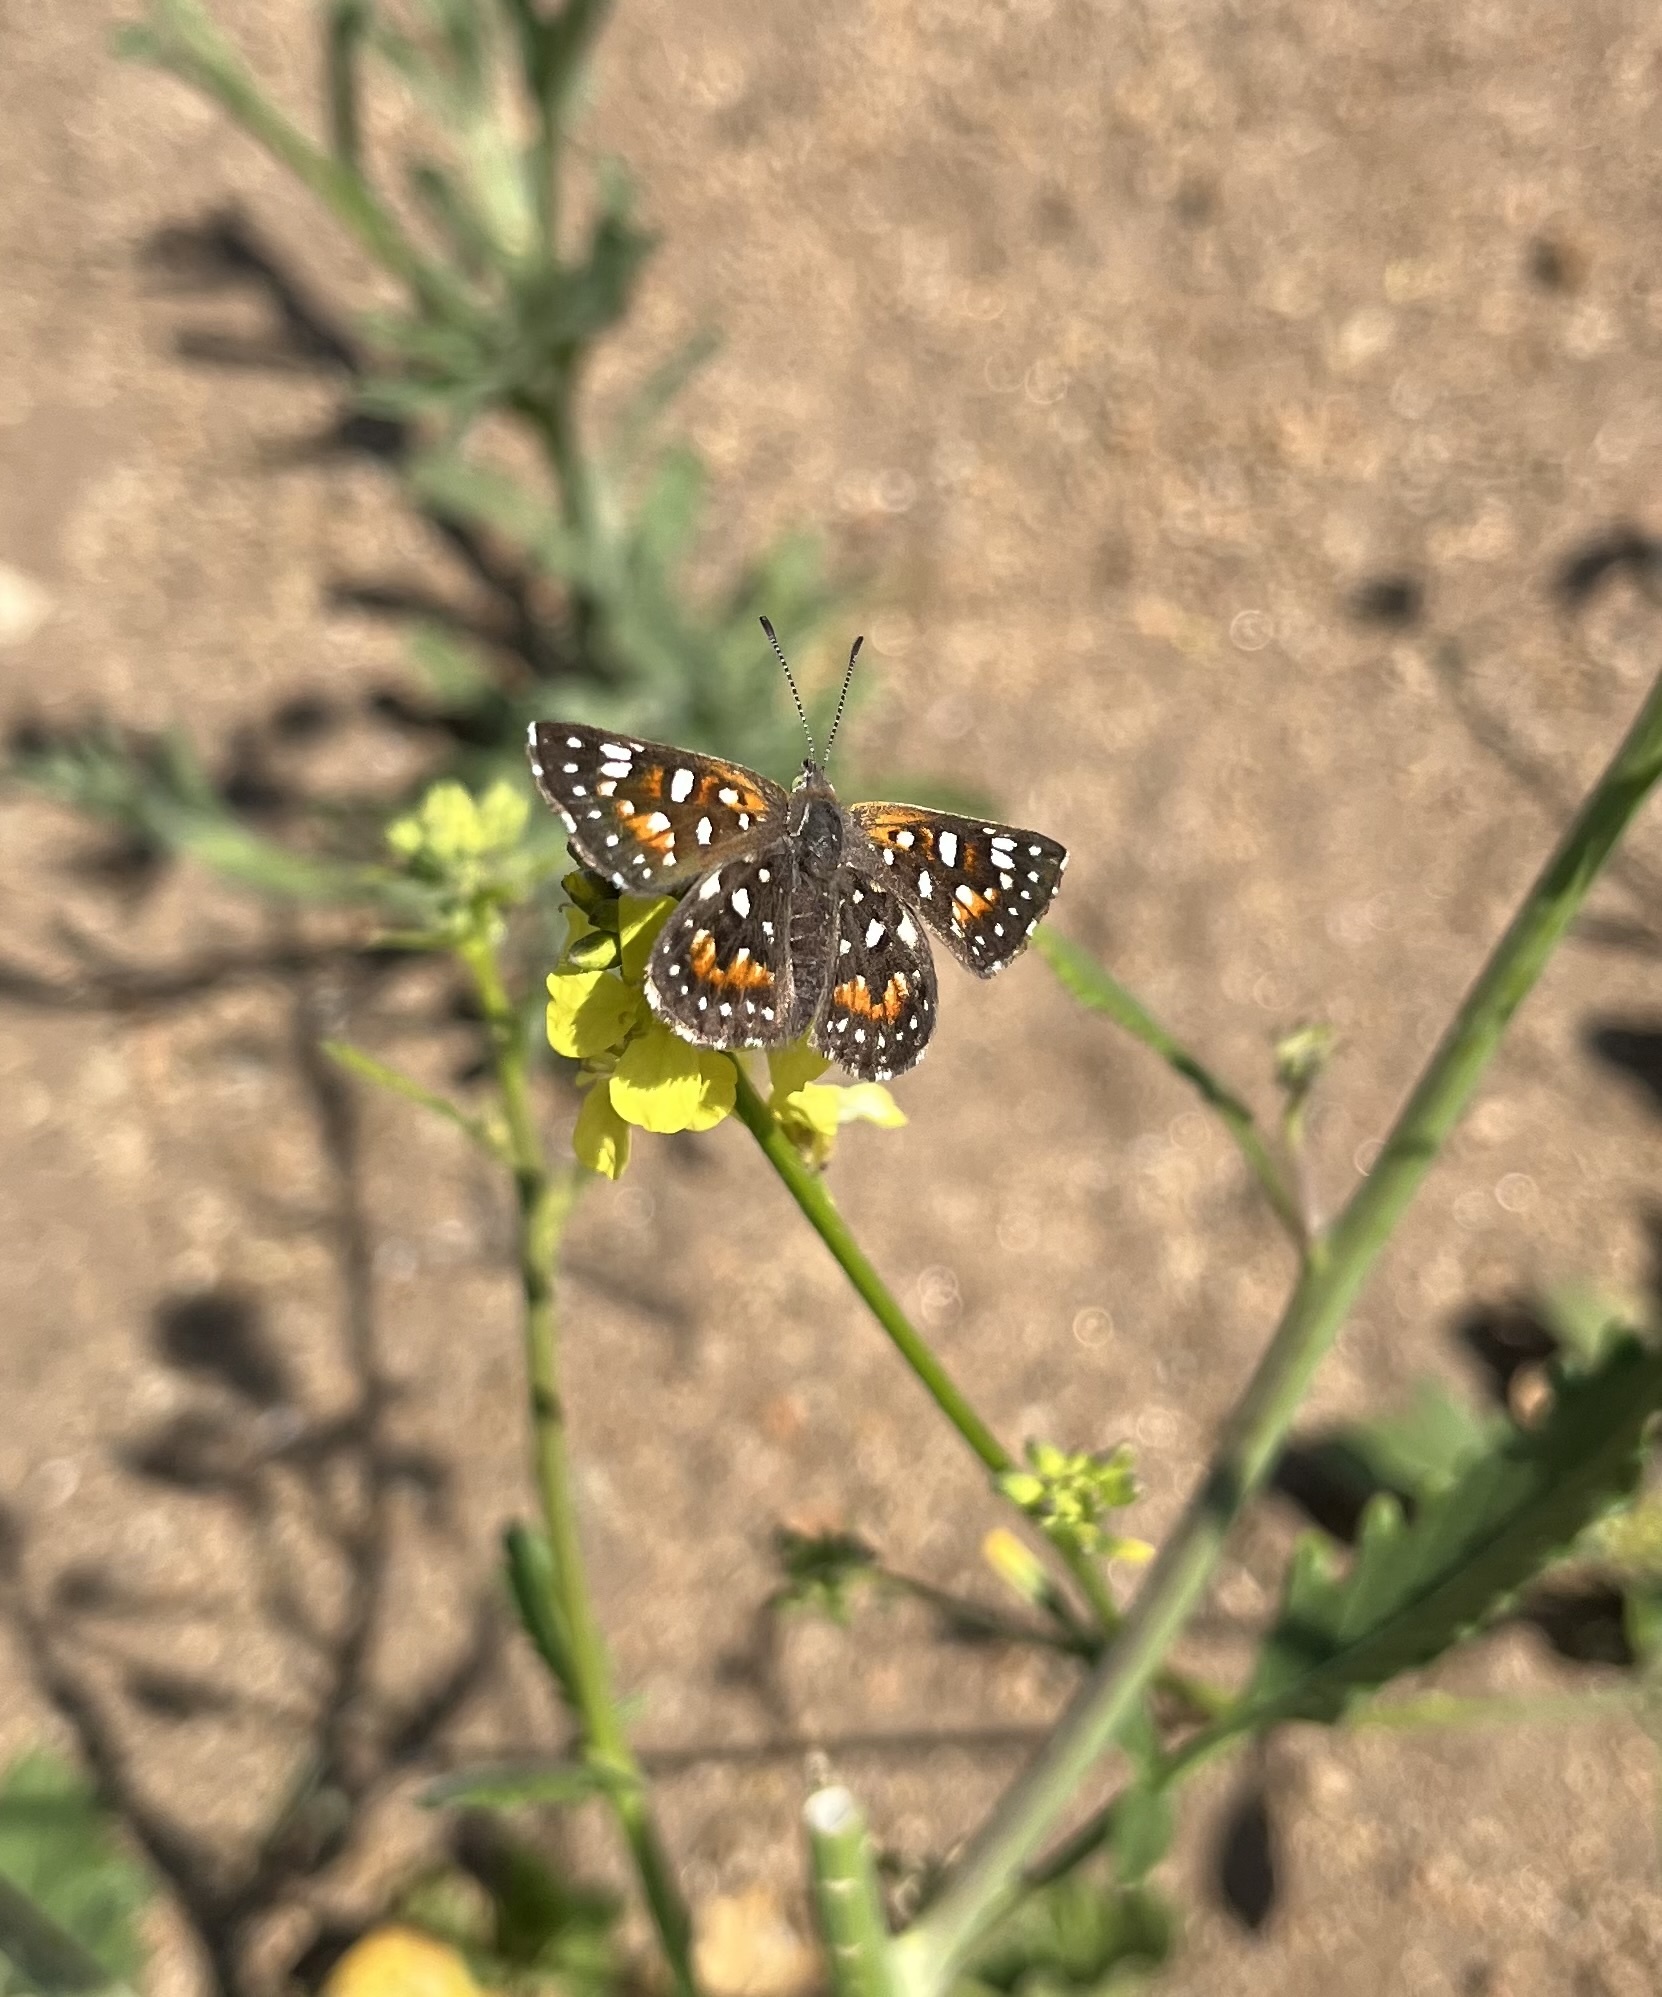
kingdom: Animalia
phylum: Arthropoda
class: Insecta
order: Lepidoptera
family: Riodinidae
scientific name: Riodinidae
